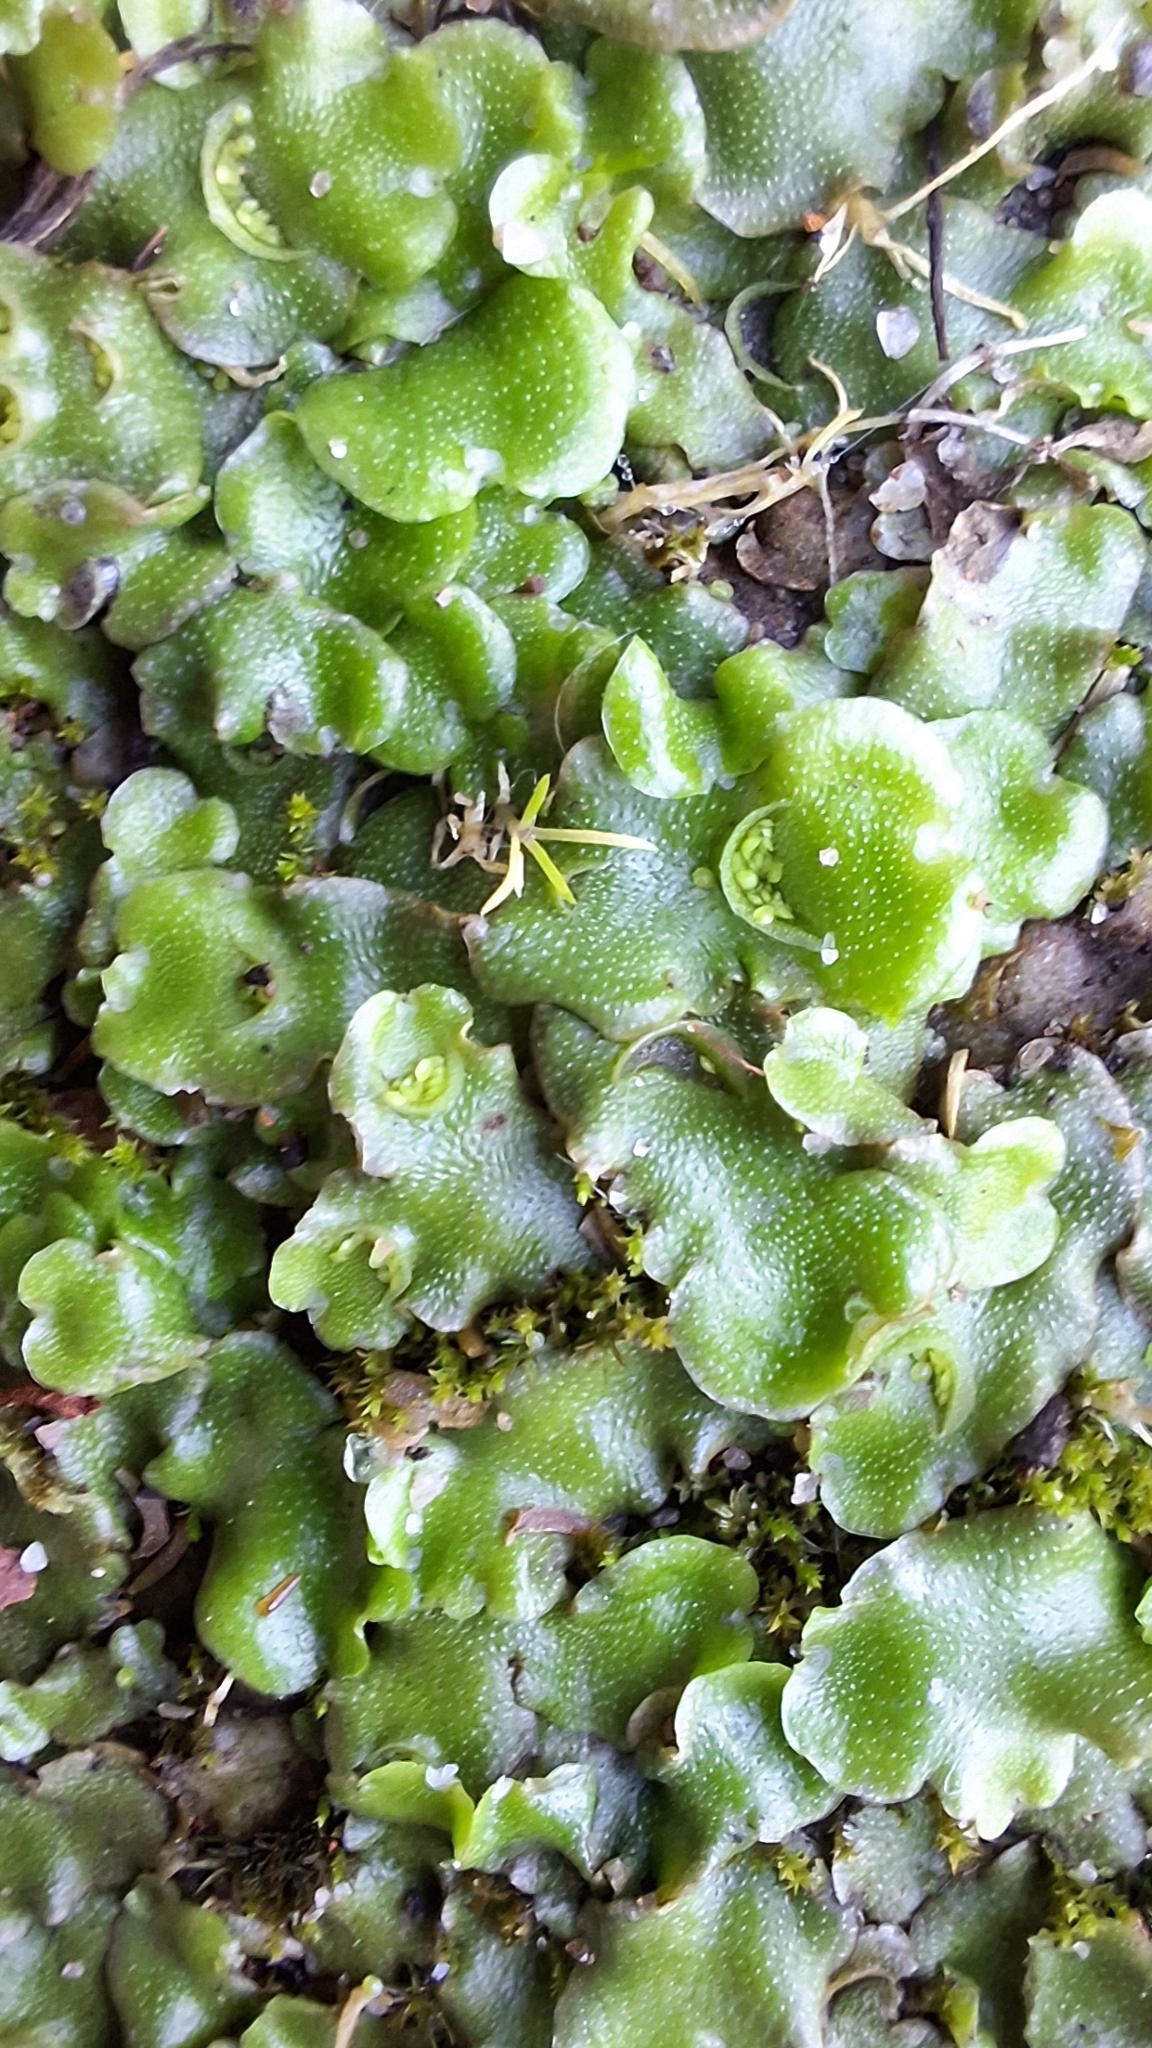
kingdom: Plantae
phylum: Marchantiophyta
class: Marchantiopsida
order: Lunulariales
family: Lunulariaceae
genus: Lunularia
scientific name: Lunularia cruciata
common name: Crescent-cup liverwort
